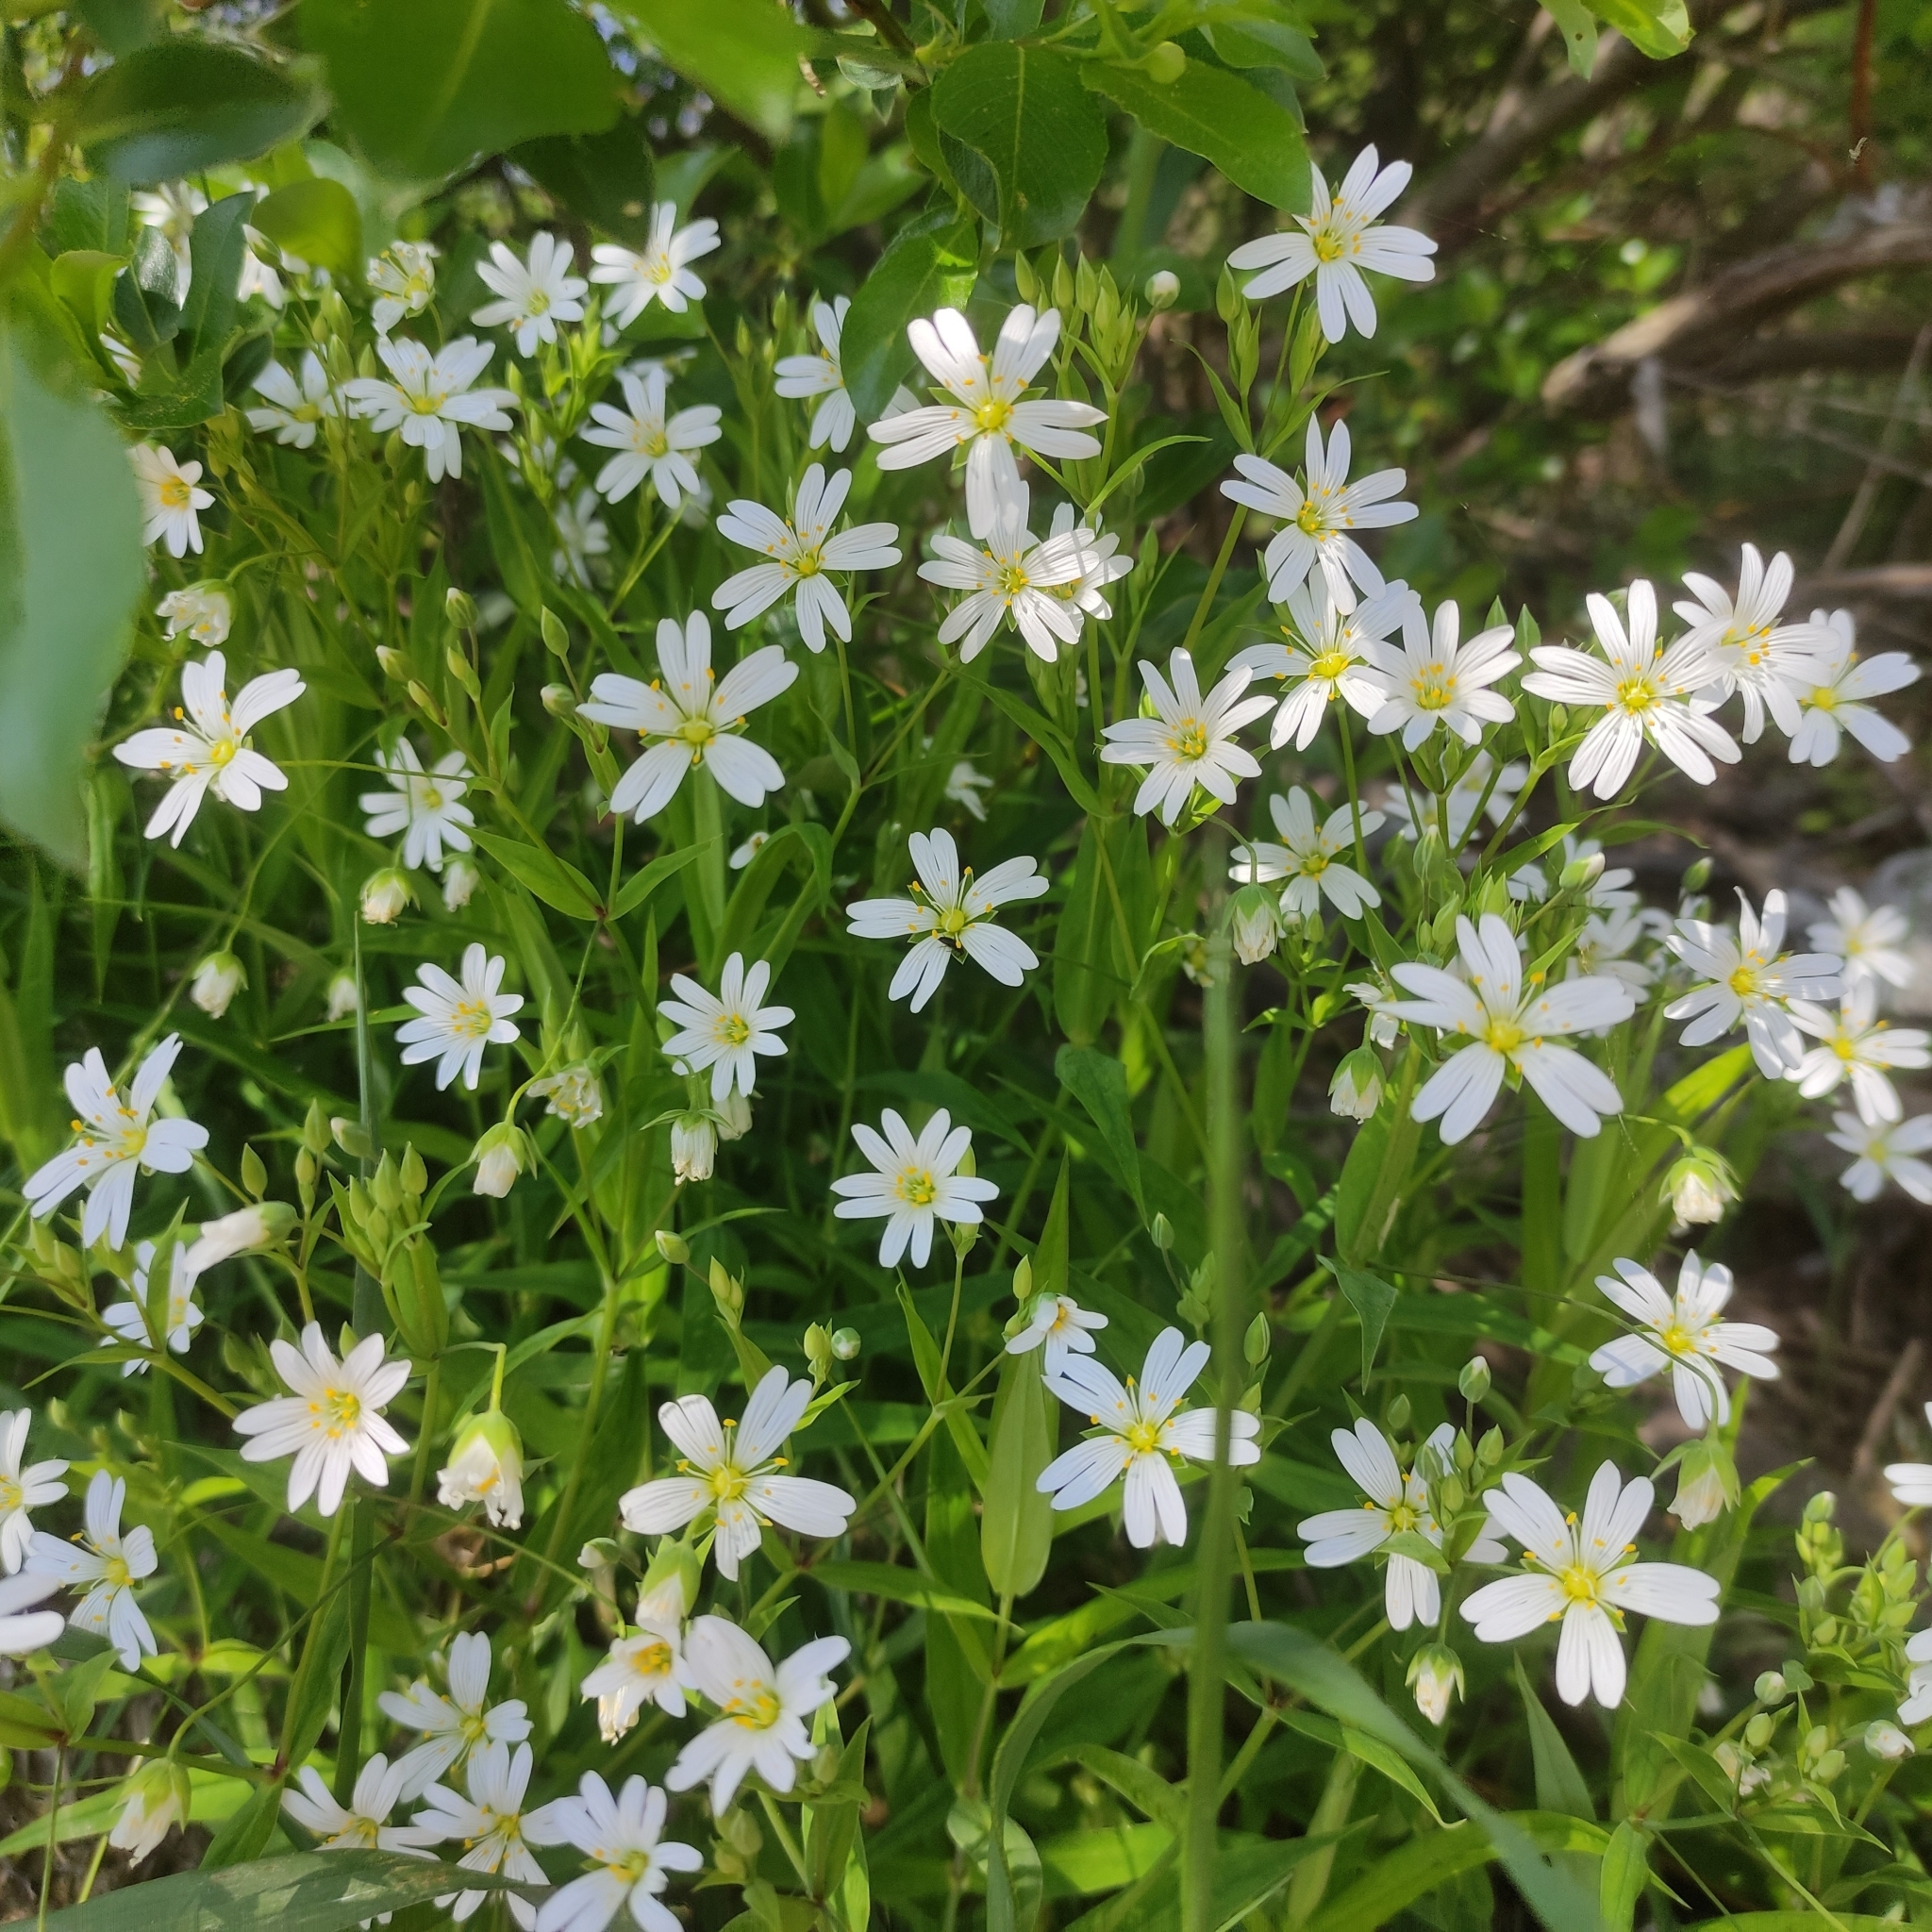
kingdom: Plantae
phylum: Tracheophyta
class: Magnoliopsida
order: Caryophyllales
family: Caryophyllaceae
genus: Rabelera
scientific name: Rabelera holostea
